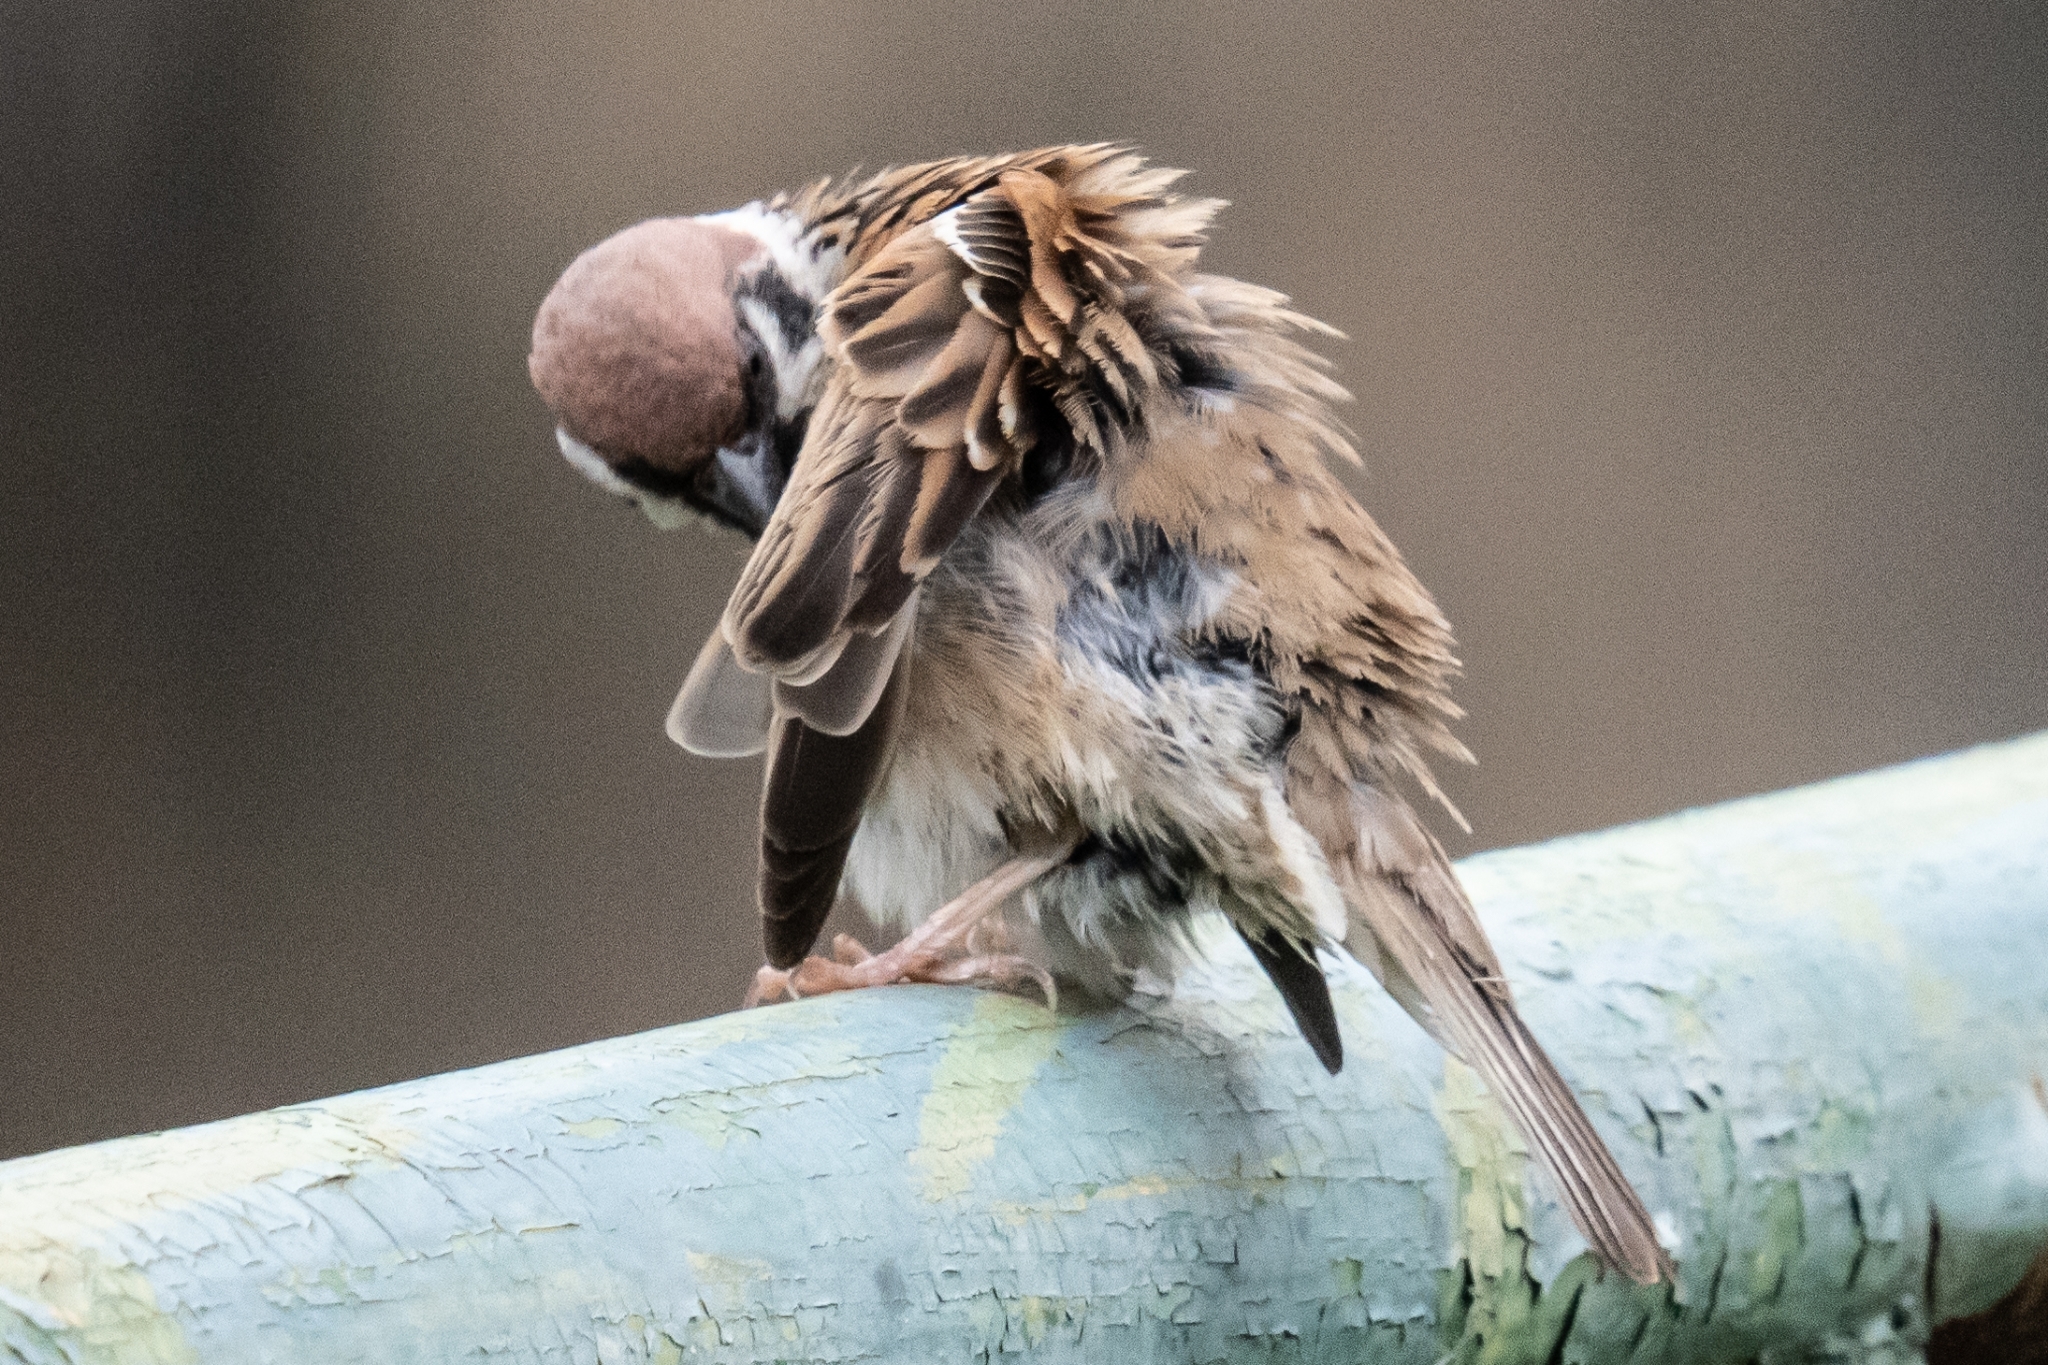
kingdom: Animalia
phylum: Chordata
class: Aves
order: Passeriformes
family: Passeridae
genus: Passer
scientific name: Passer montanus
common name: Eurasian tree sparrow
